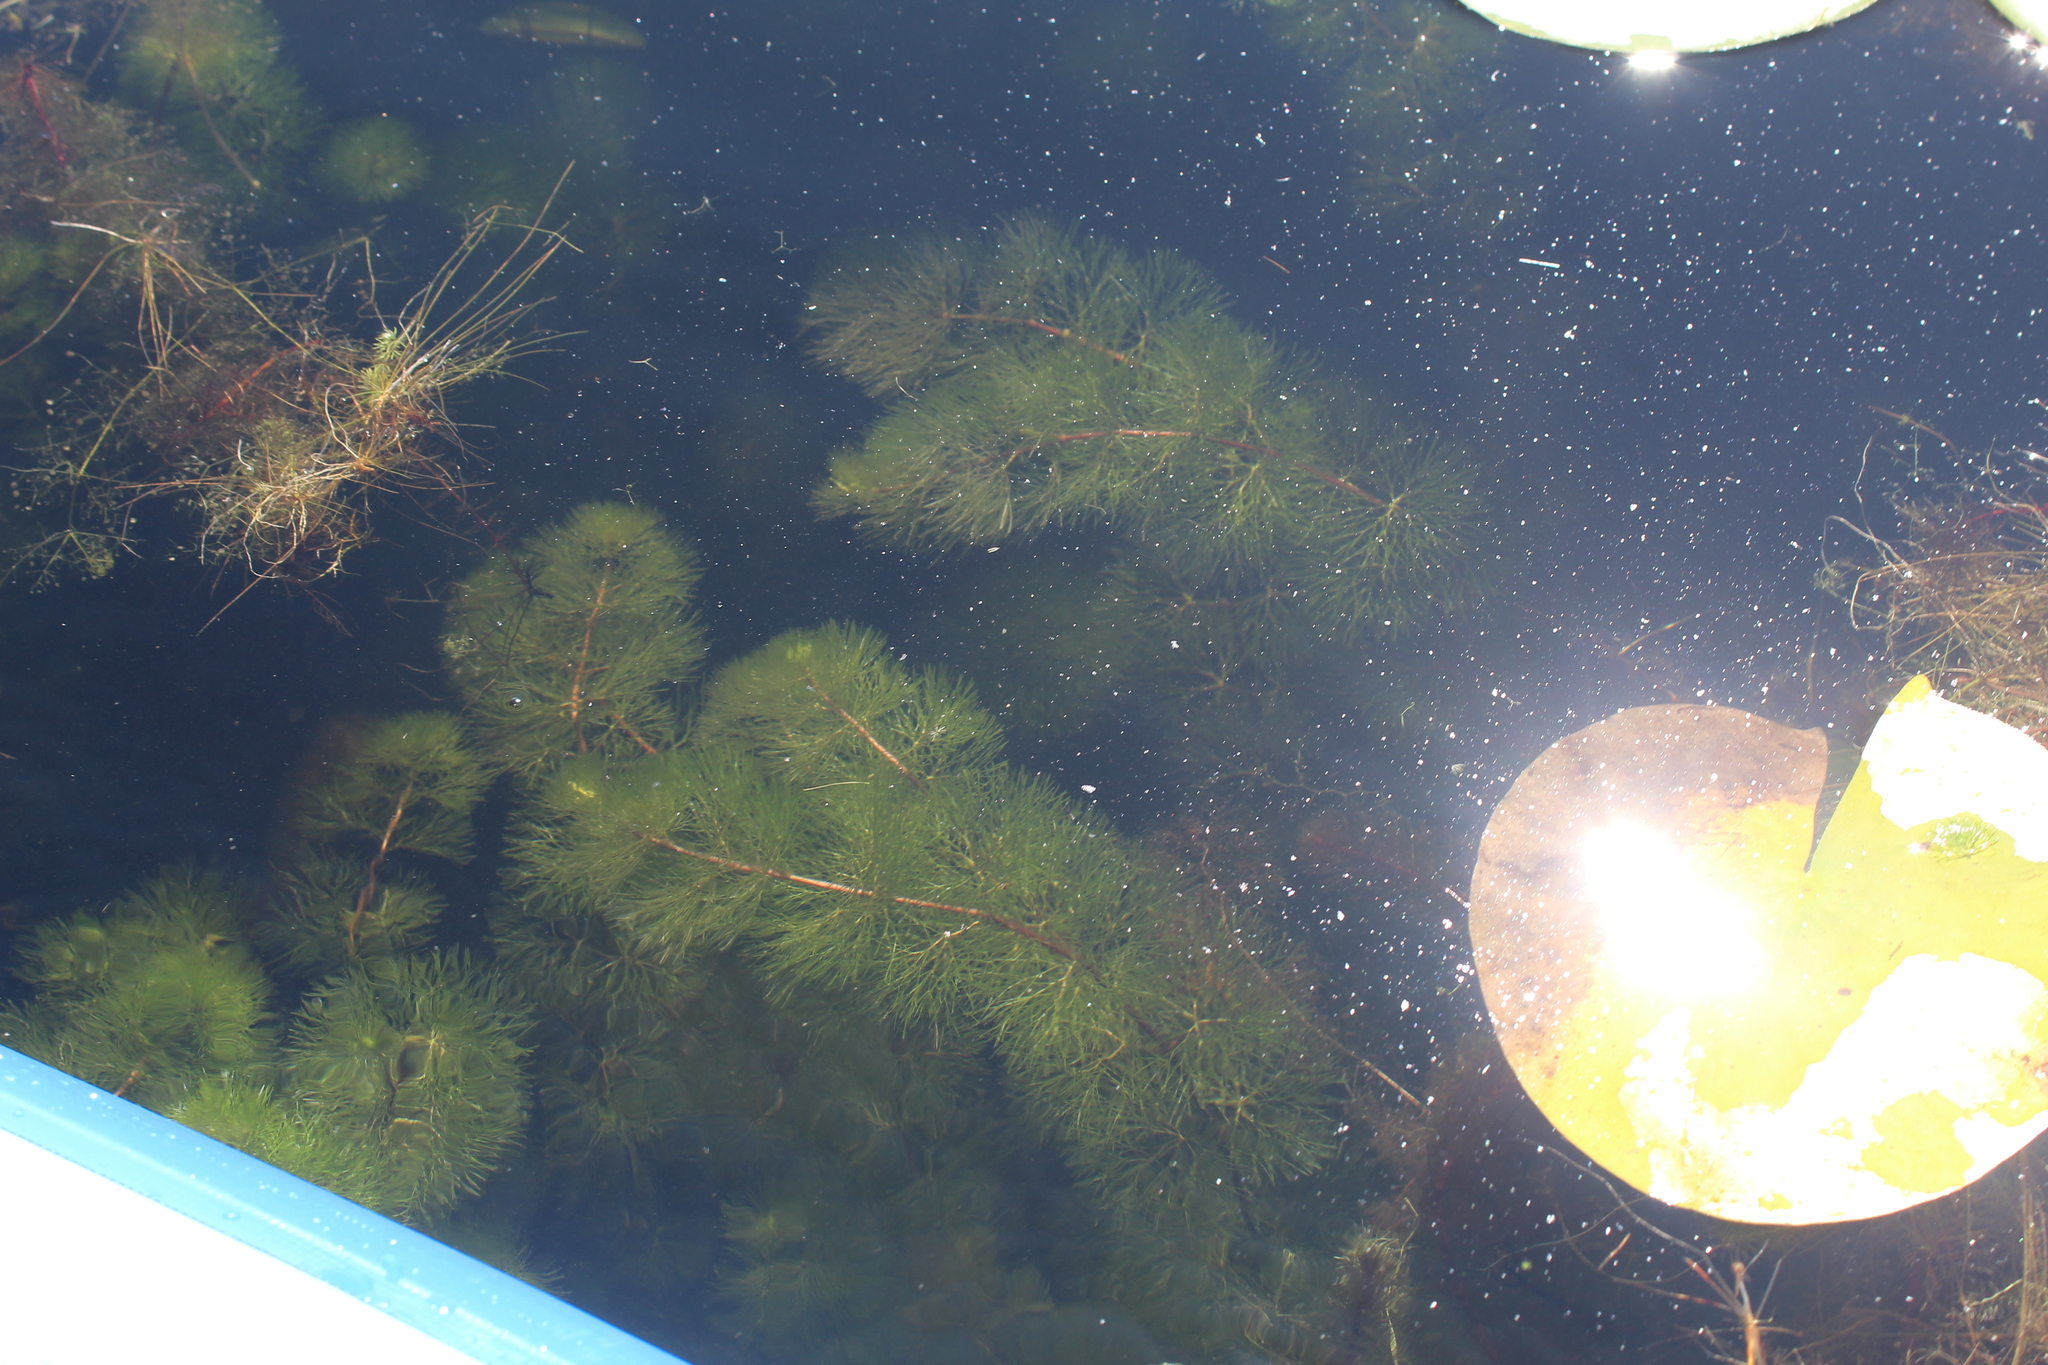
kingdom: Plantae
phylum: Tracheophyta
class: Magnoliopsida
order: Nymphaeales
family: Cabombaceae
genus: Cabomba
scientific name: Cabomba caroliniana
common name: Fanwort
